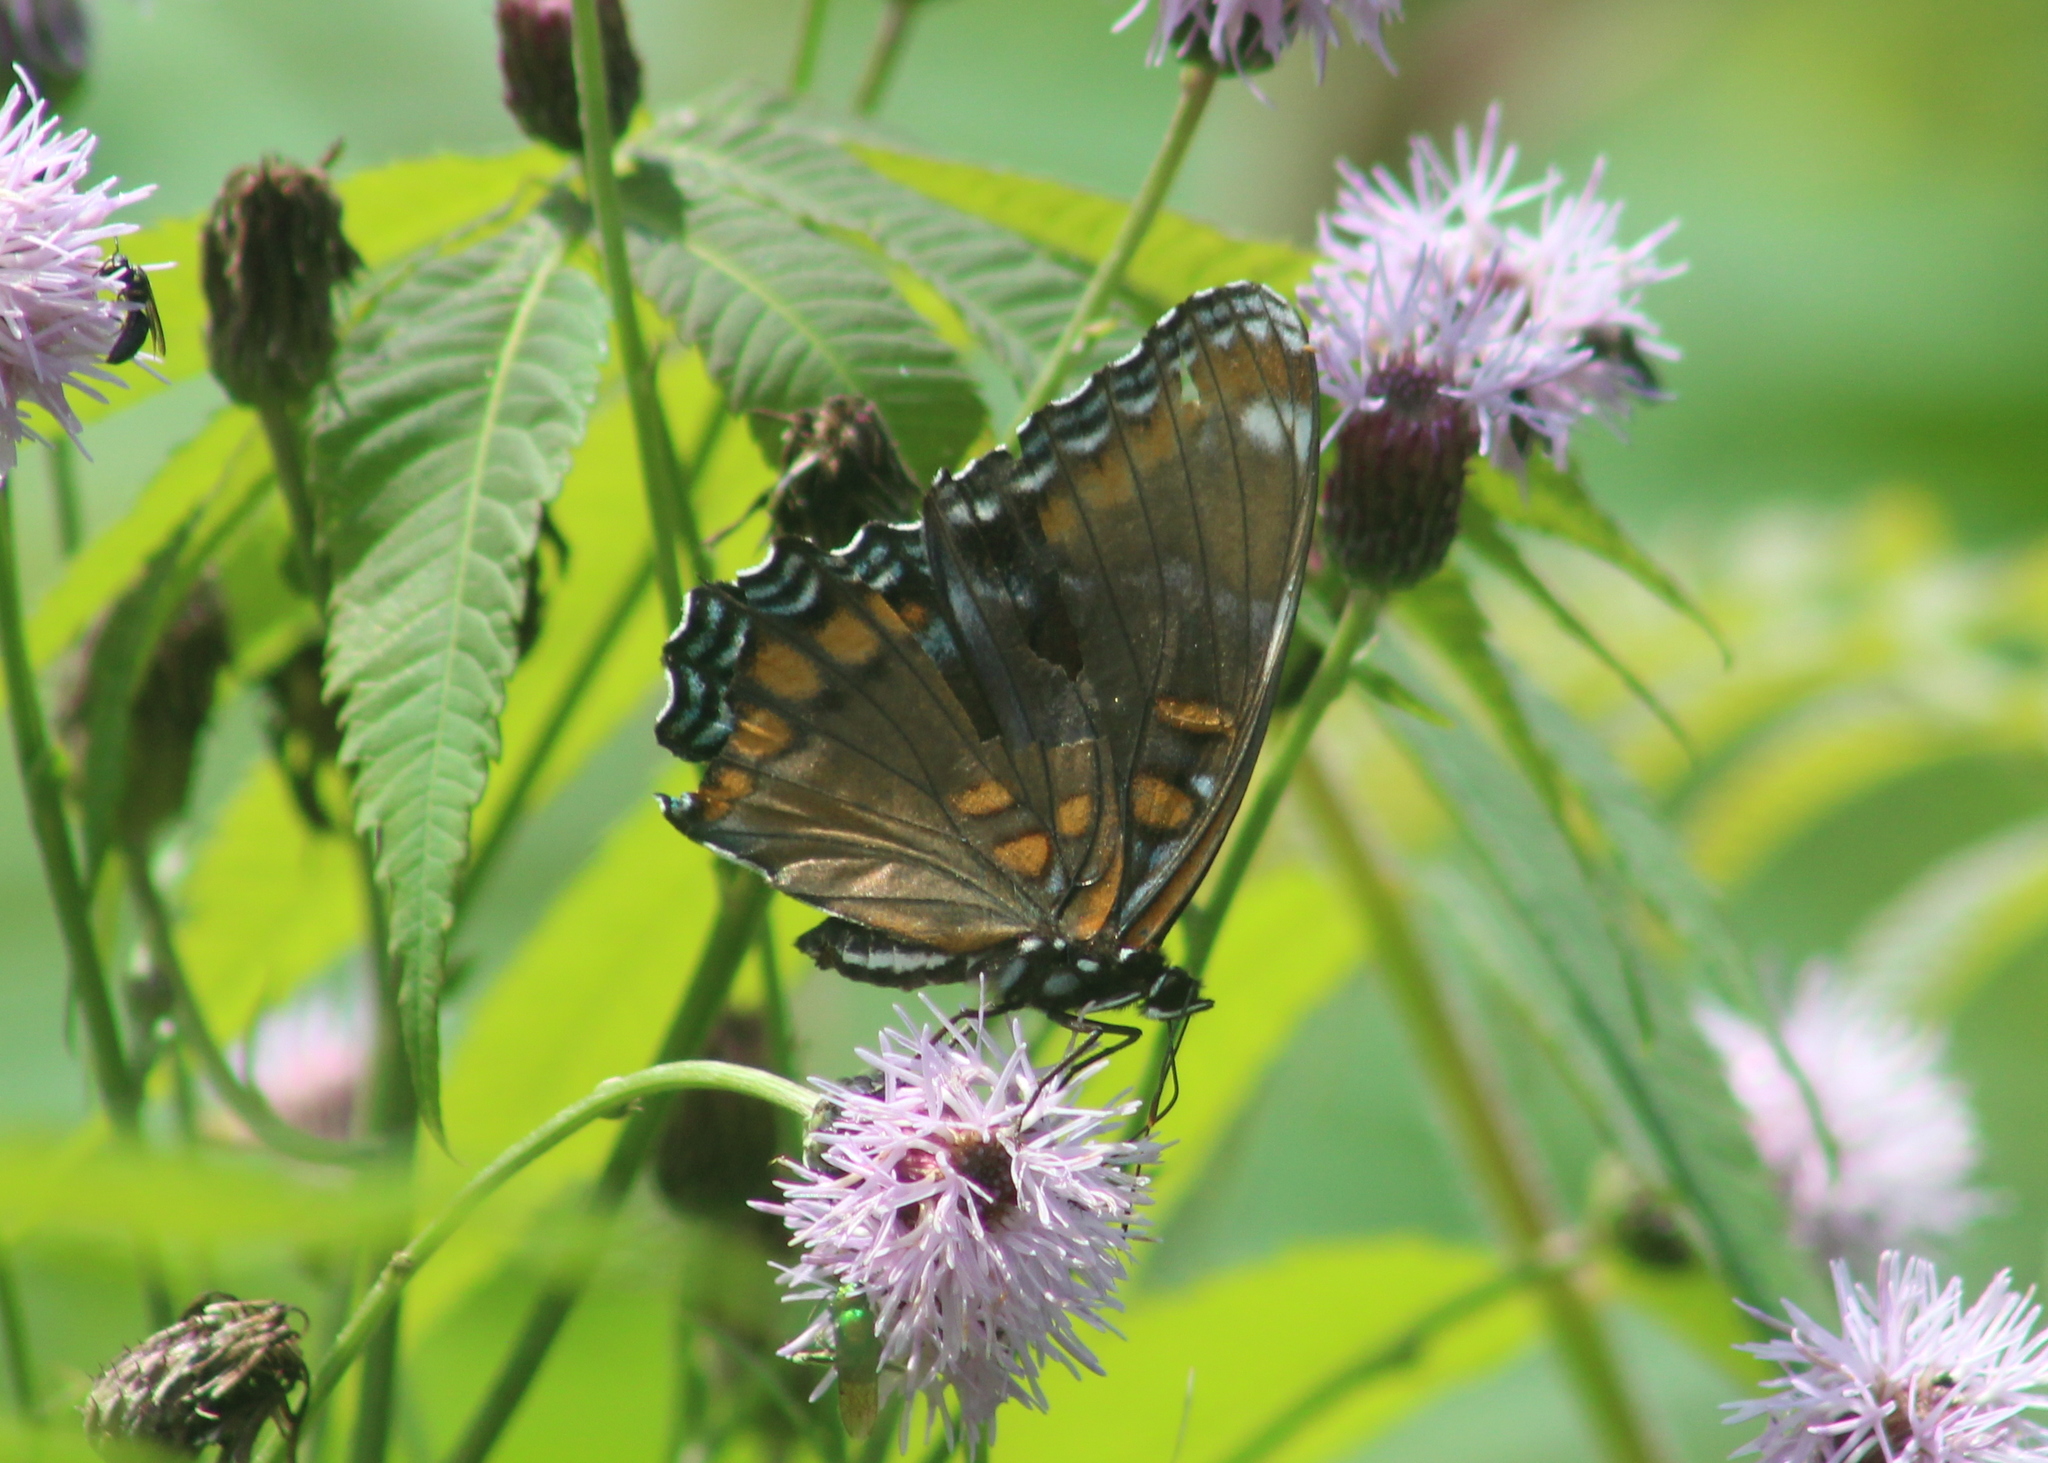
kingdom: Animalia
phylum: Arthropoda
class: Insecta
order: Lepidoptera
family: Nymphalidae
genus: Limenitis
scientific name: Limenitis arthemis
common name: Red-spotted admiral
